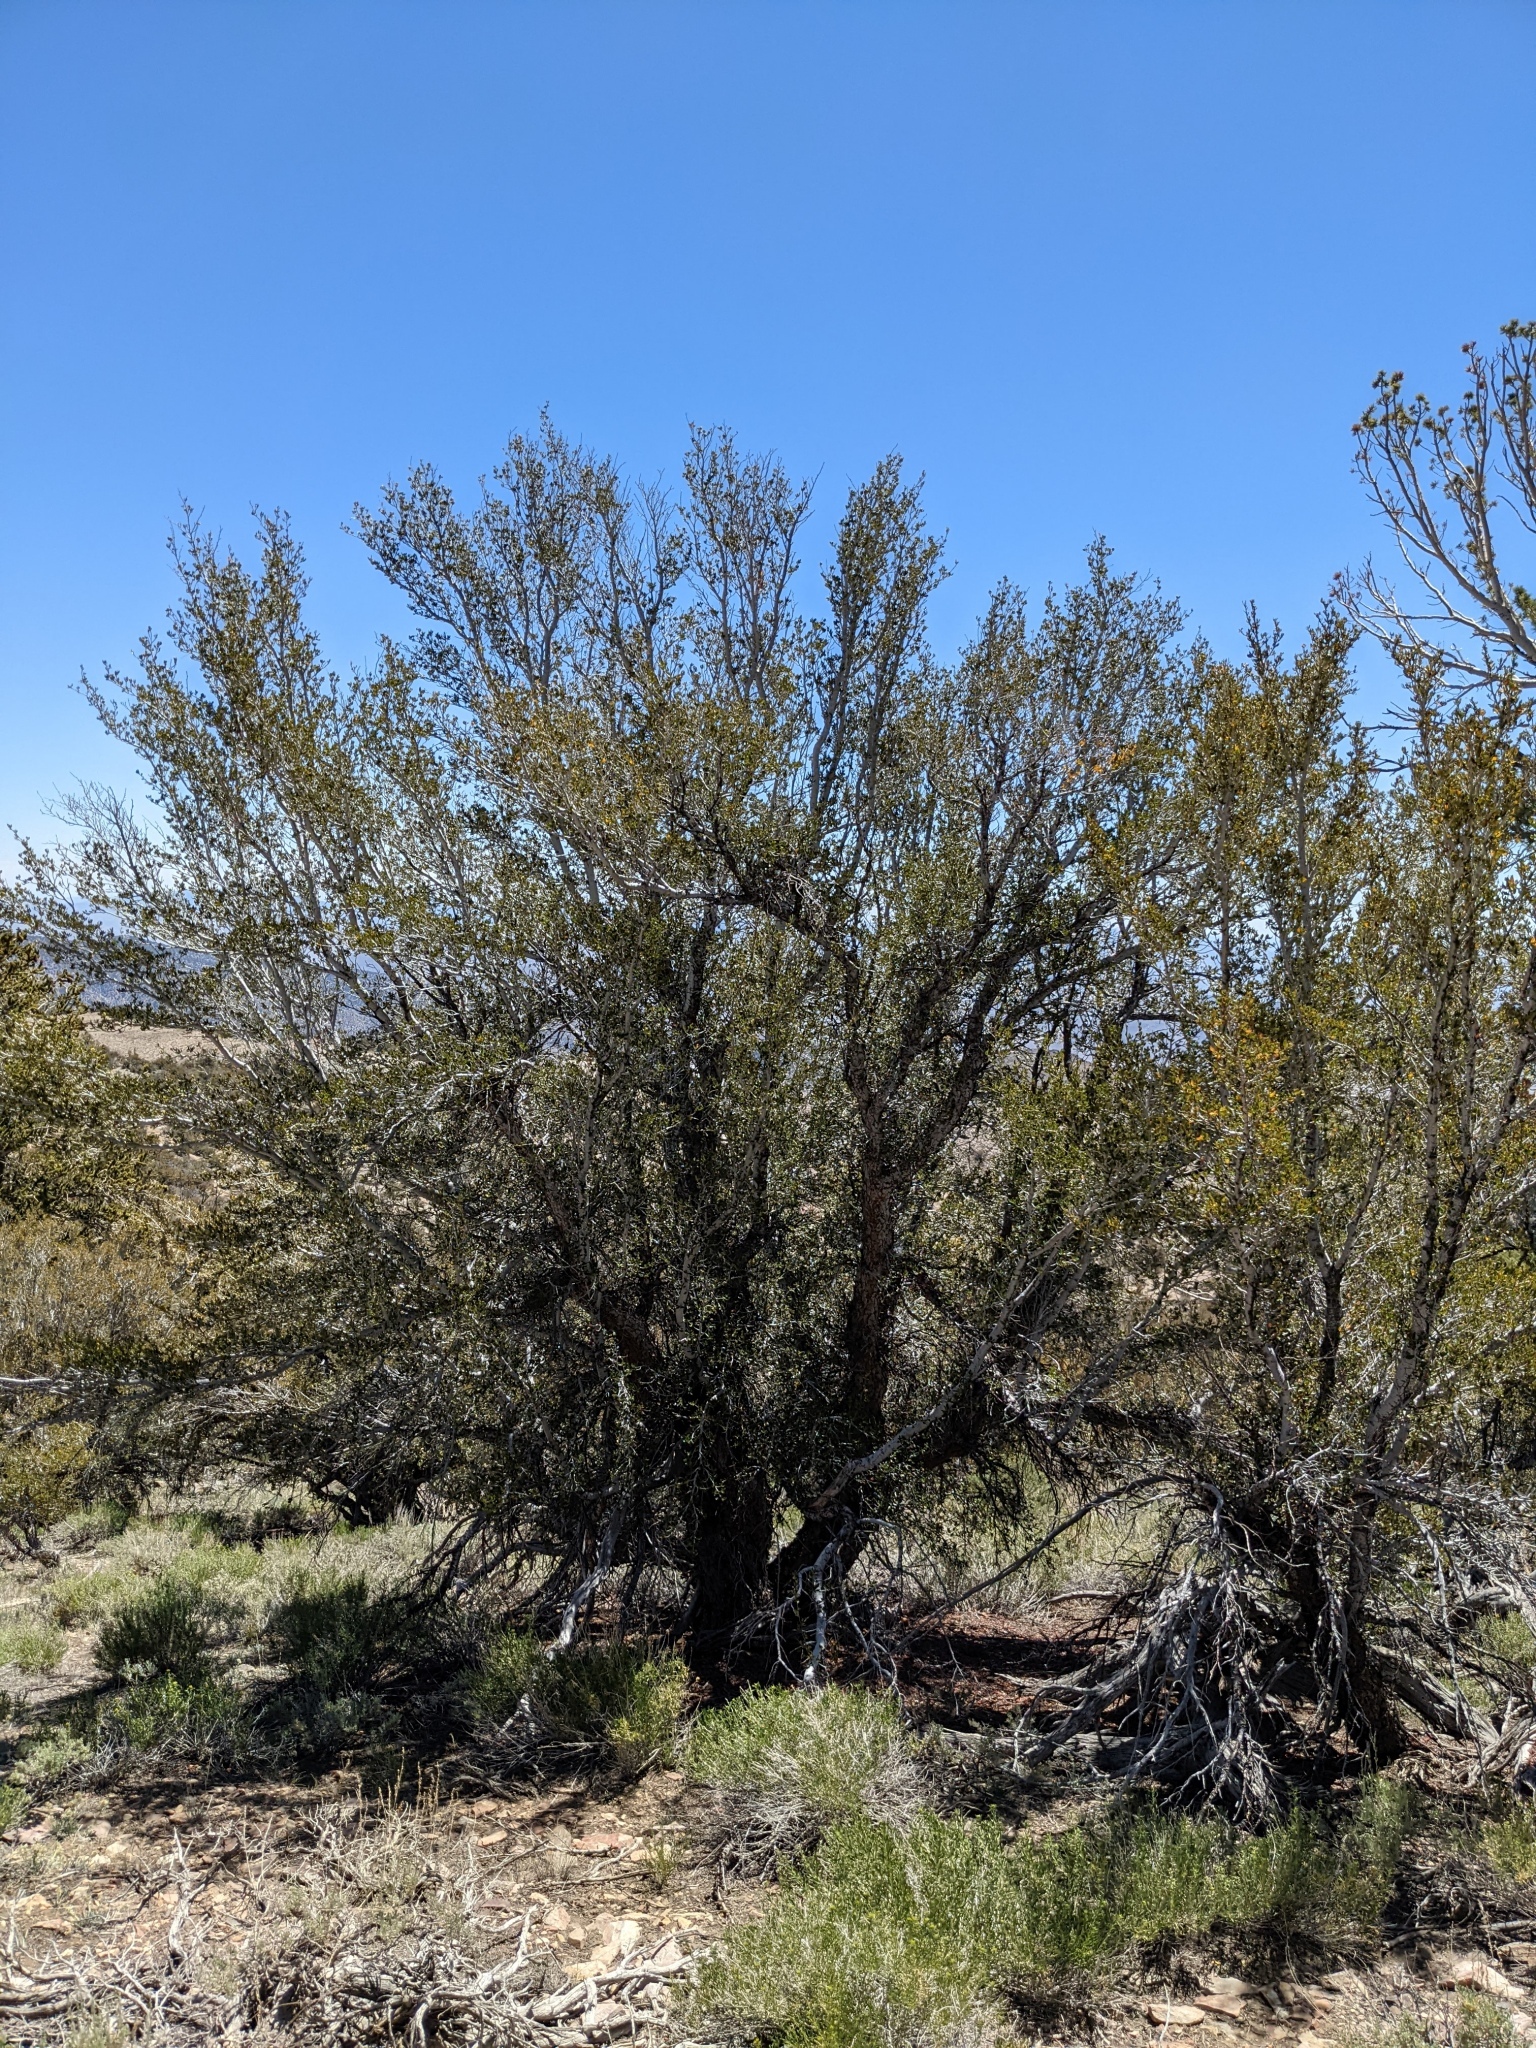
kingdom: Plantae
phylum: Tracheophyta
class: Magnoliopsida
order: Rosales
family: Rosaceae
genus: Cercocarpus
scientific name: Cercocarpus ledifolius
